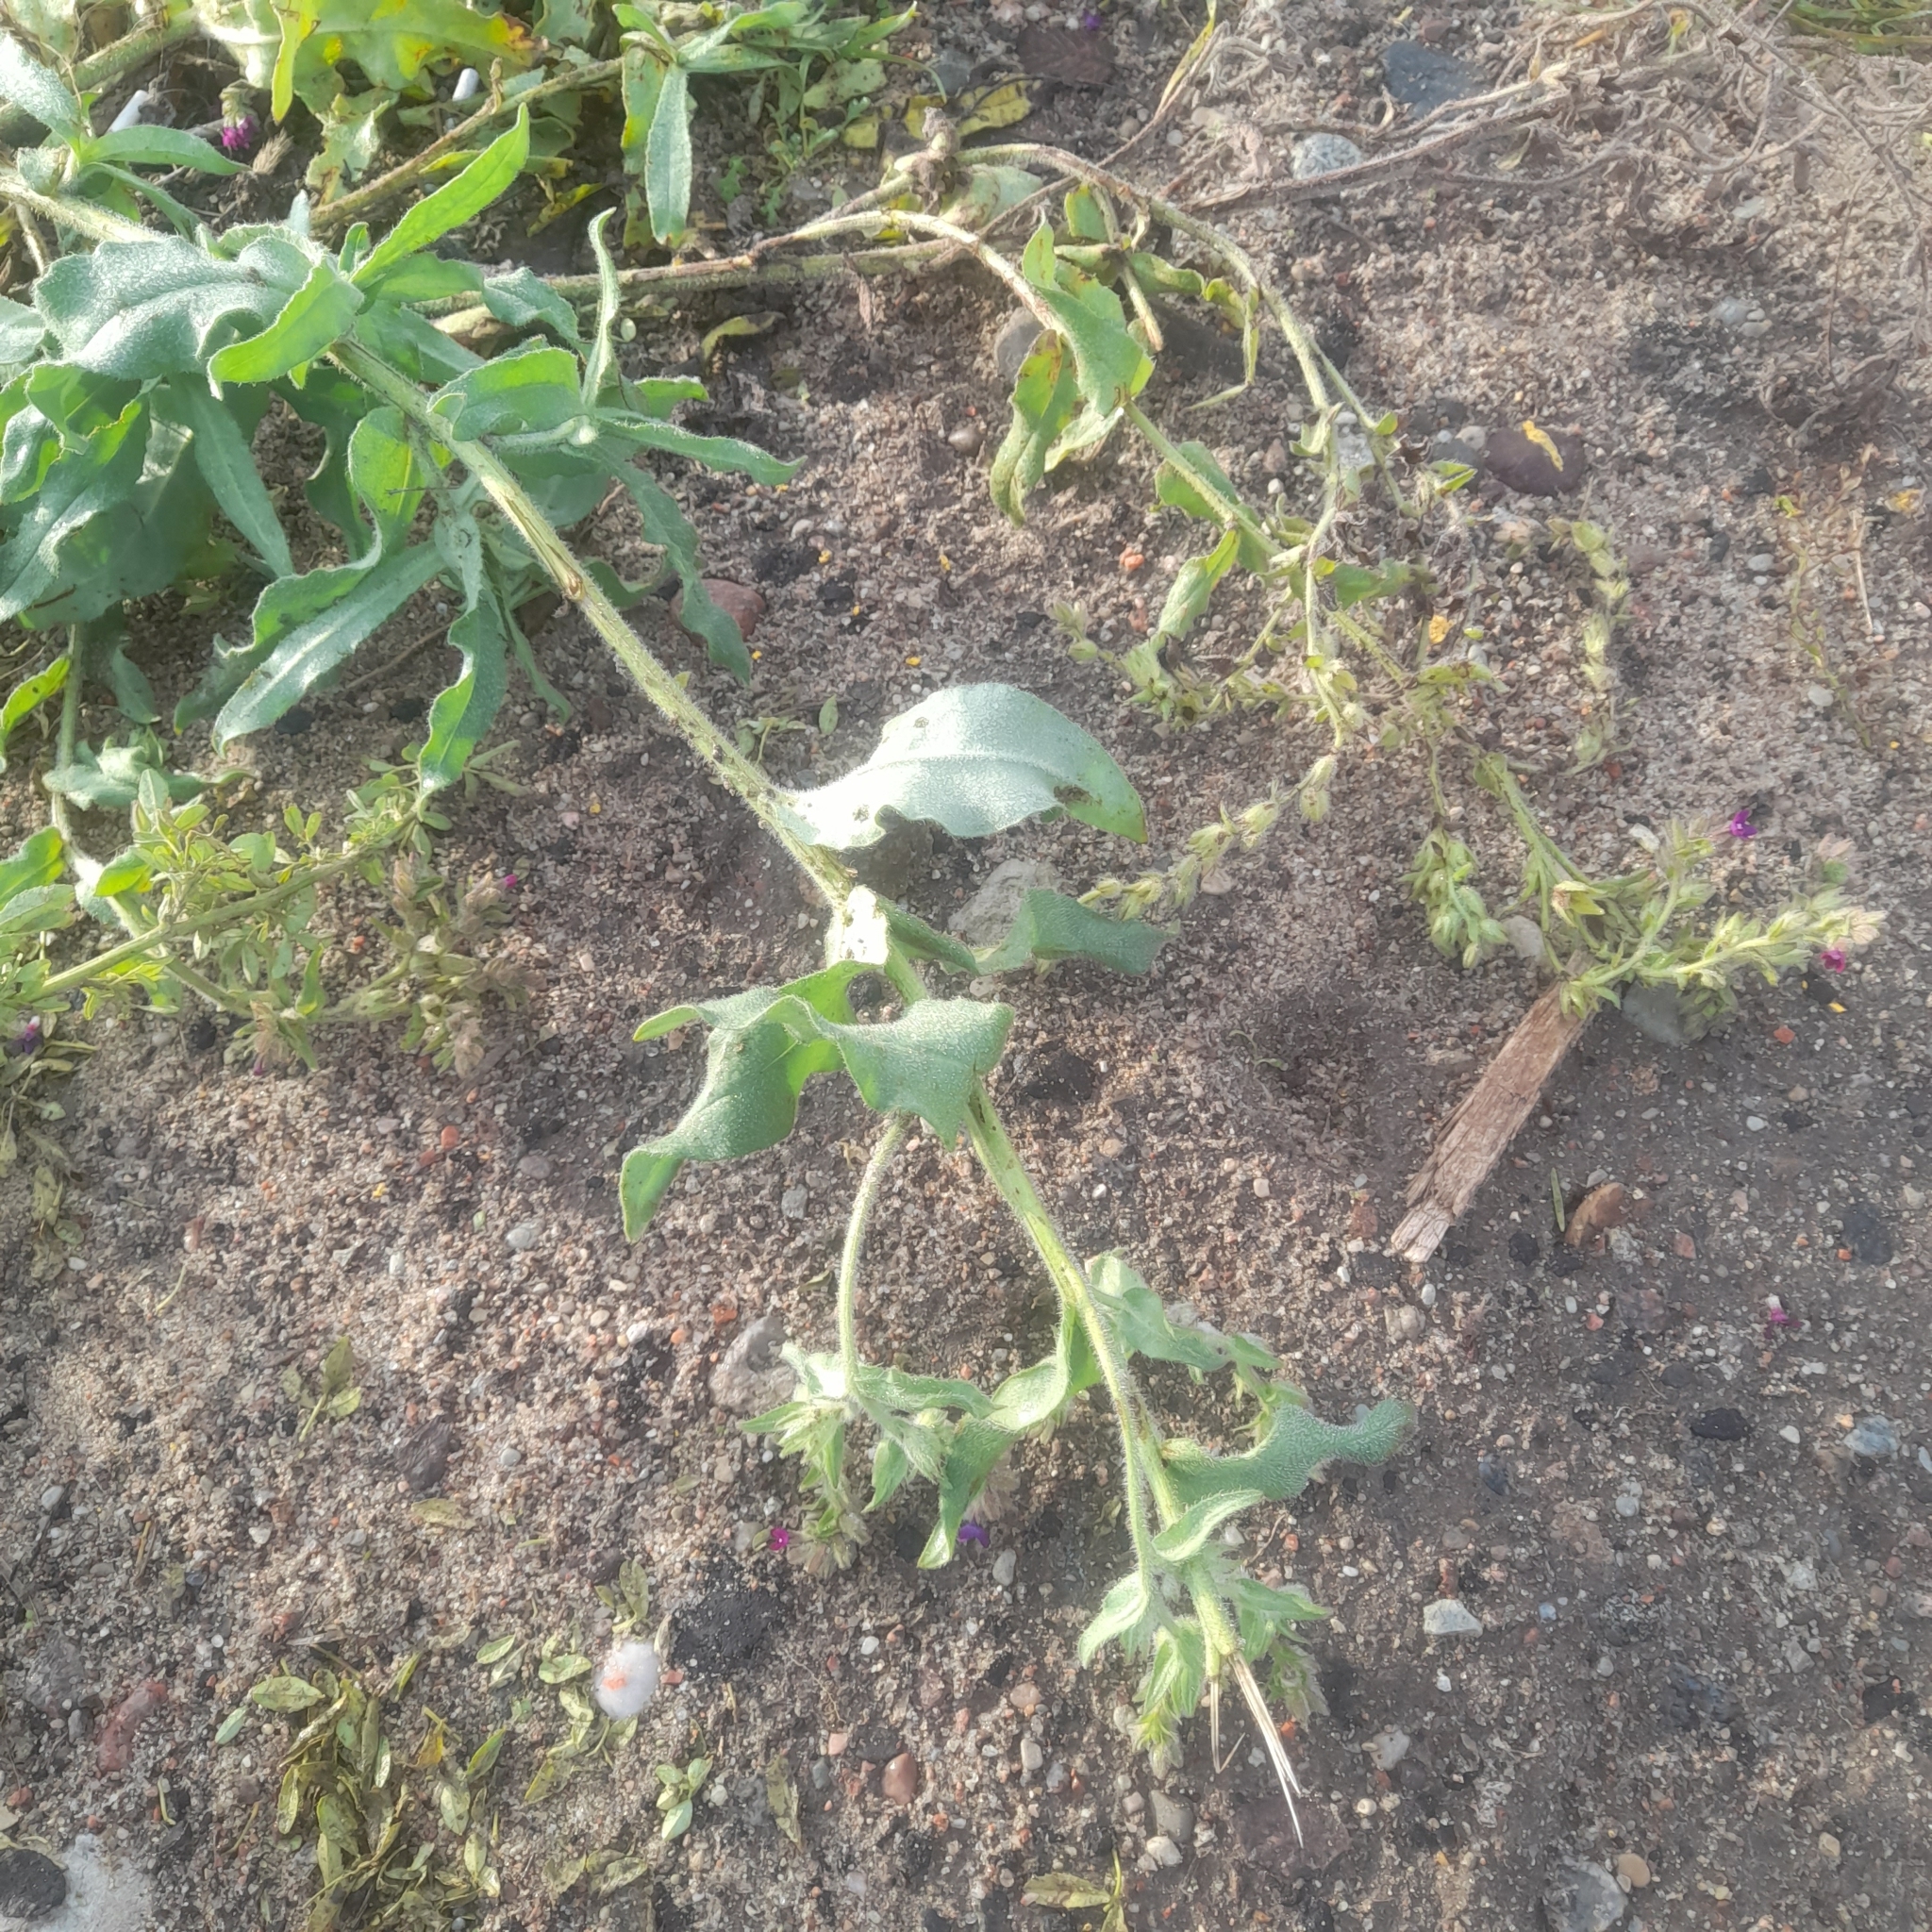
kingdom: Plantae
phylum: Tracheophyta
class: Magnoliopsida
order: Boraginales
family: Boraginaceae
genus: Anchusa
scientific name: Anchusa officinalis
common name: Alkanet
